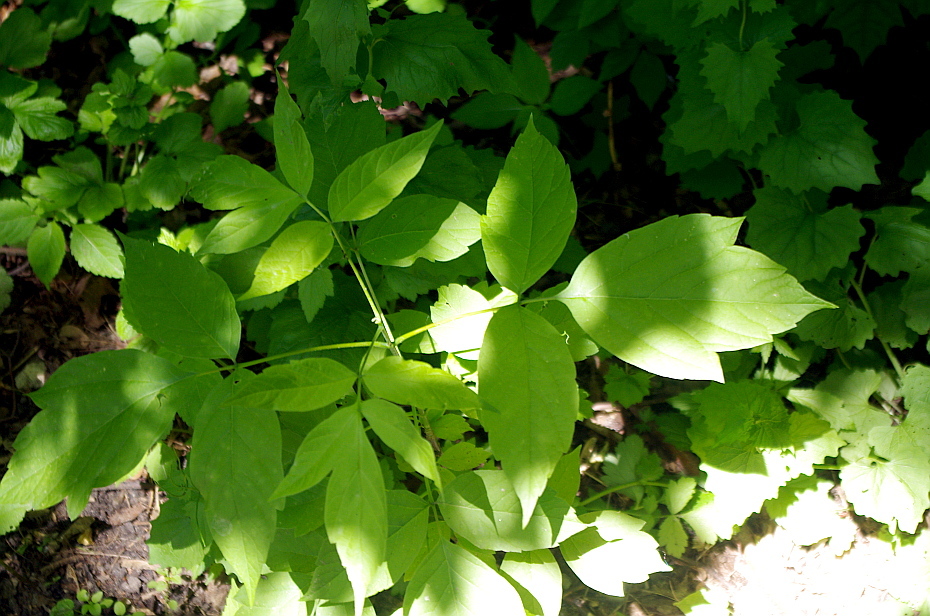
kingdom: Plantae
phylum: Tracheophyta
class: Magnoliopsida
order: Sapindales
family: Sapindaceae
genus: Acer
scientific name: Acer negundo
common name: Ashleaf maple
